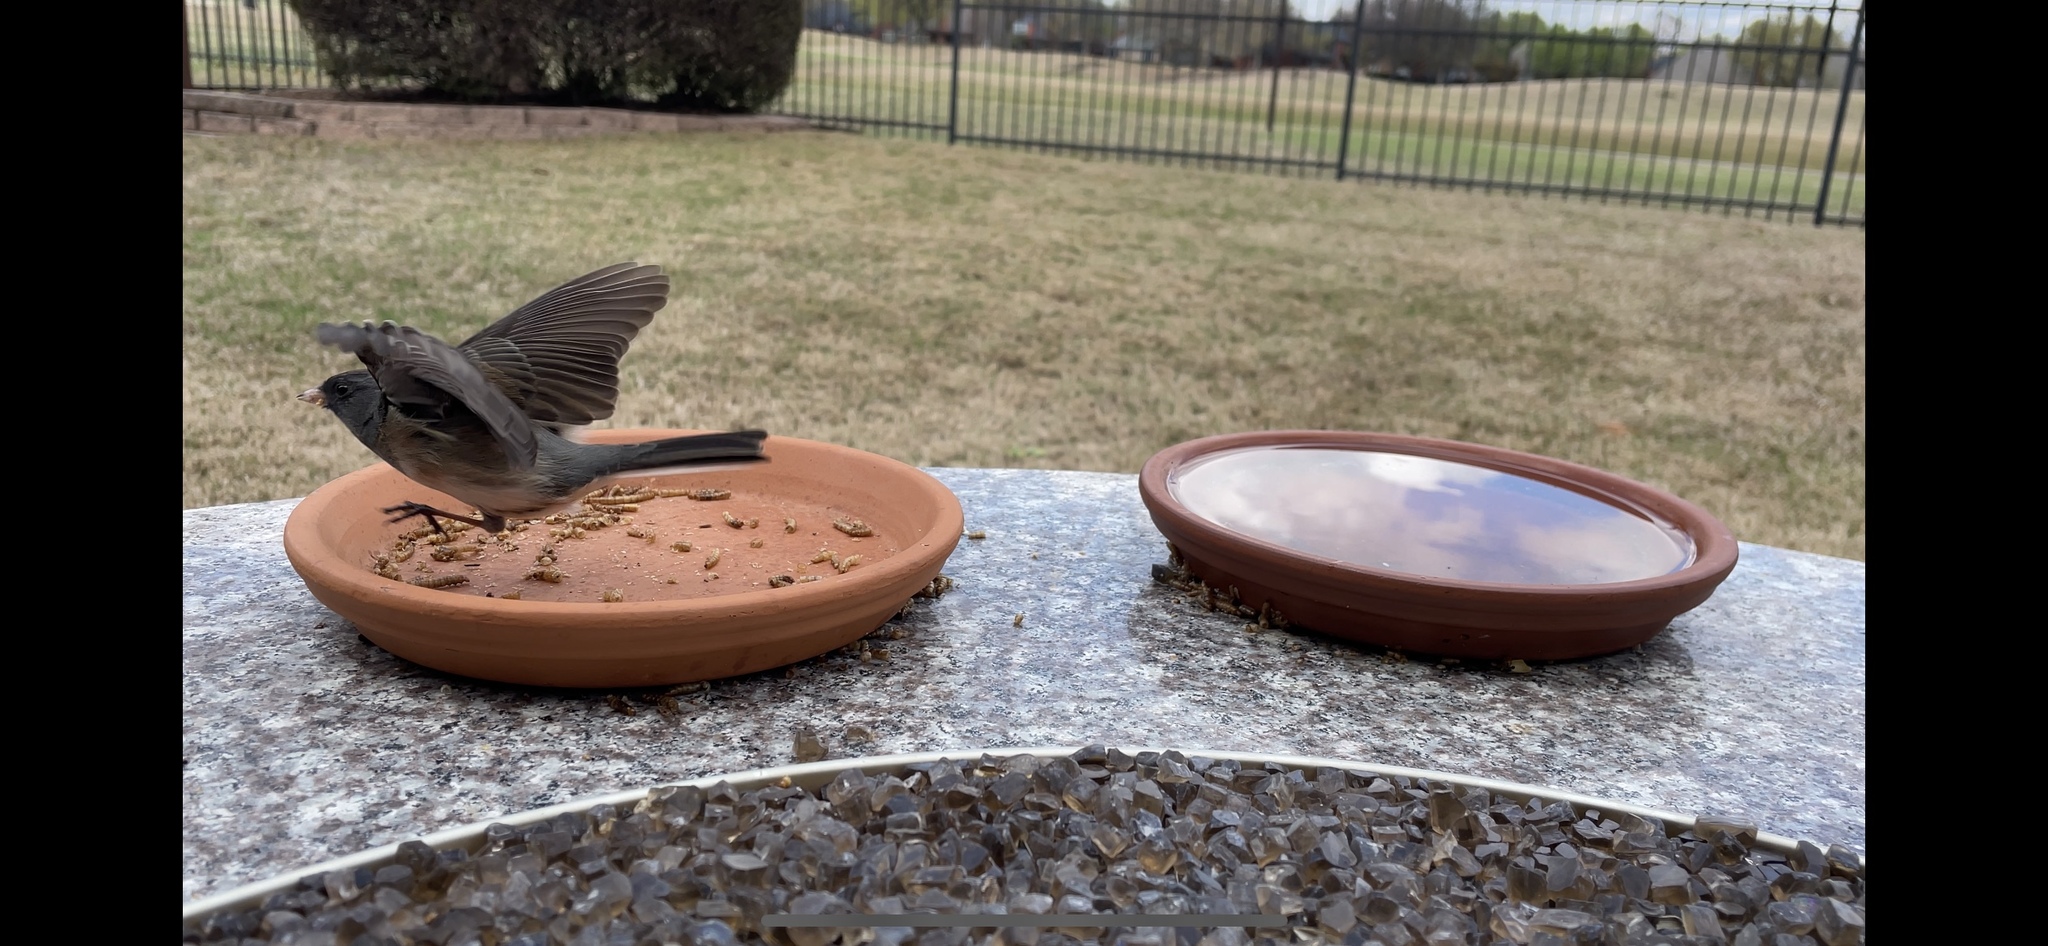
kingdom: Animalia
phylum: Chordata
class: Aves
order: Passeriformes
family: Passerellidae
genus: Junco
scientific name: Junco hyemalis
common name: Dark-eyed junco
